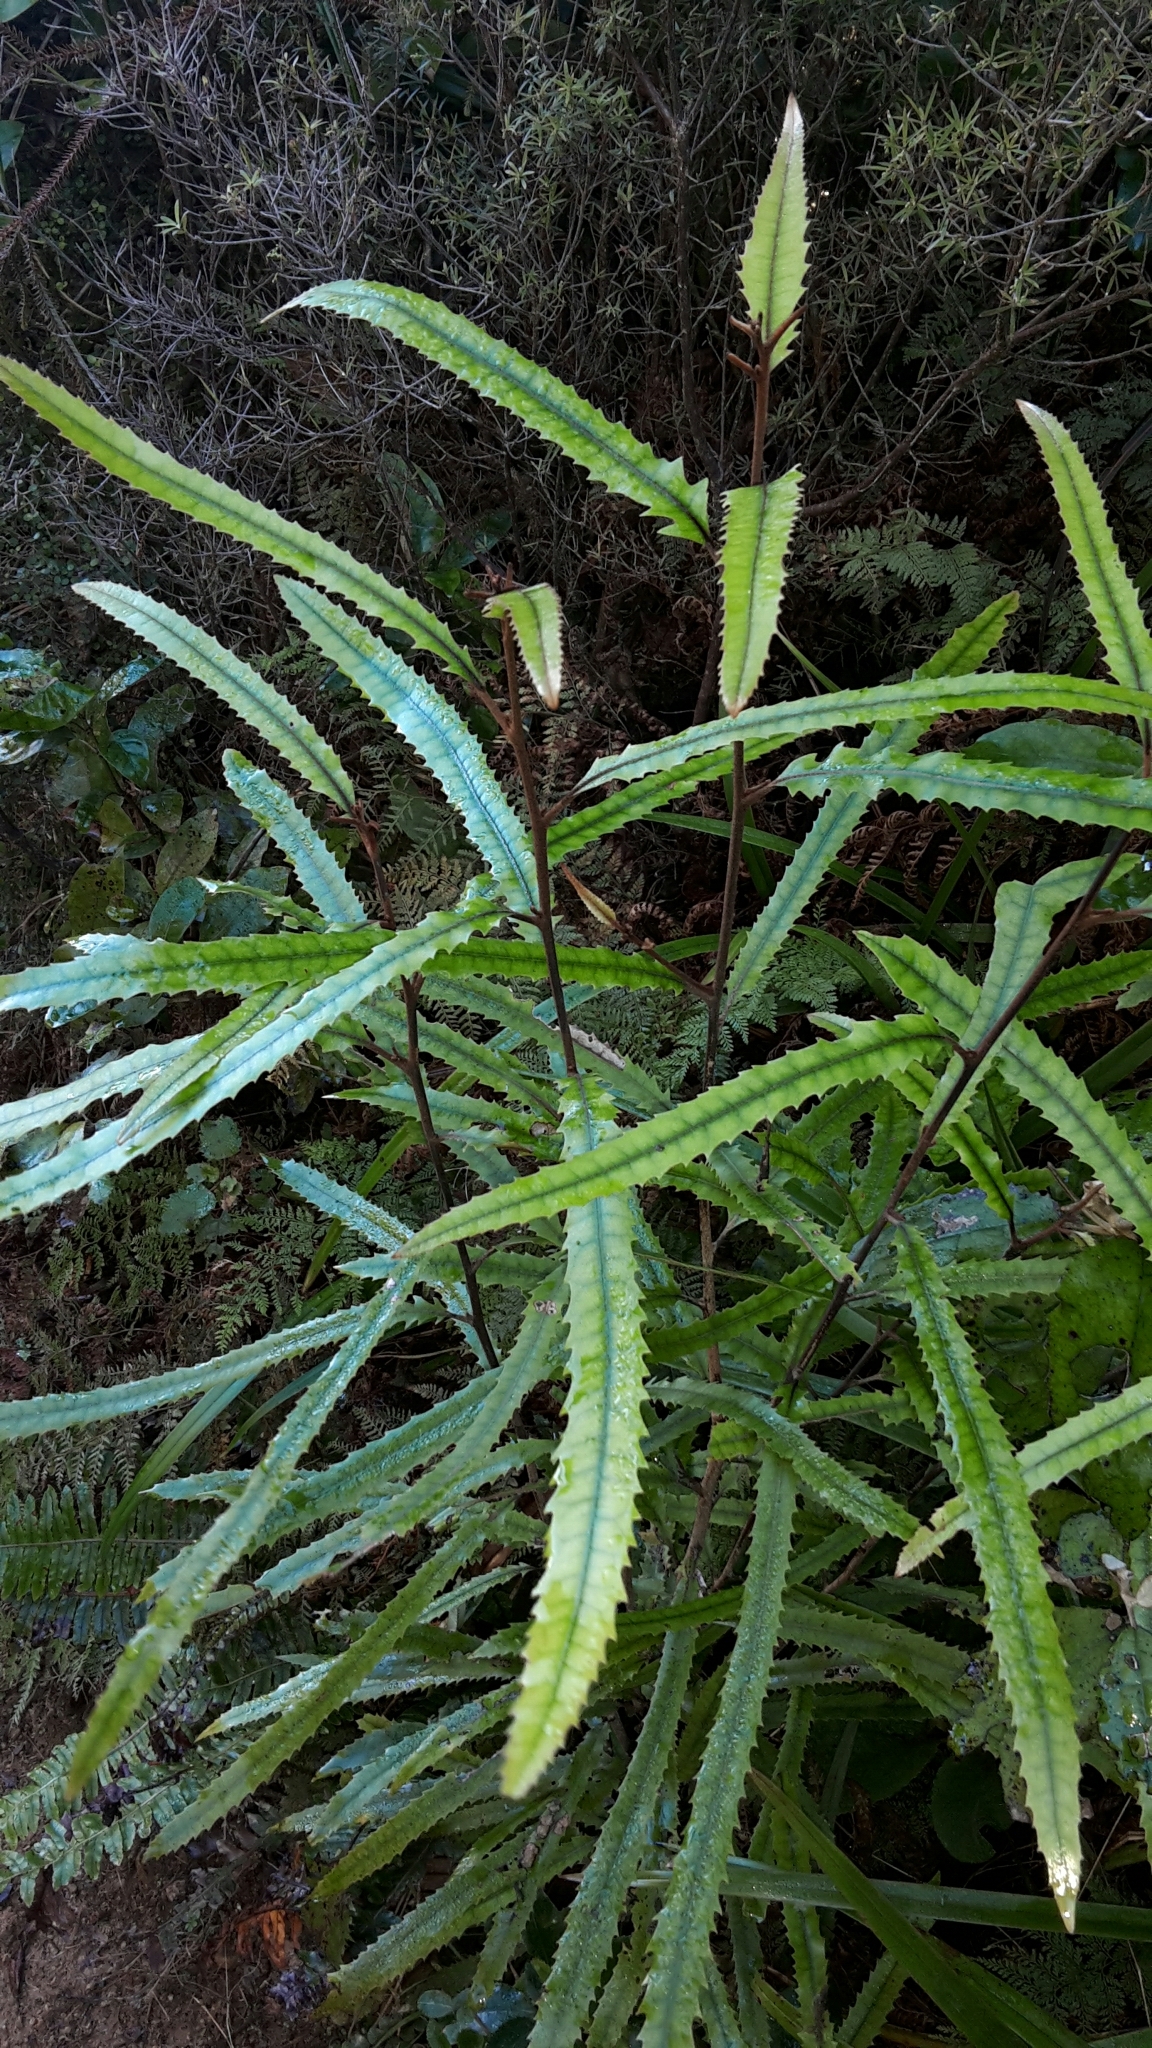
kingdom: Plantae
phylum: Tracheophyta
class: Magnoliopsida
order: Proteales
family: Proteaceae
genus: Knightia
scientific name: Knightia excelsa
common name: New zealand-honeysuckle
